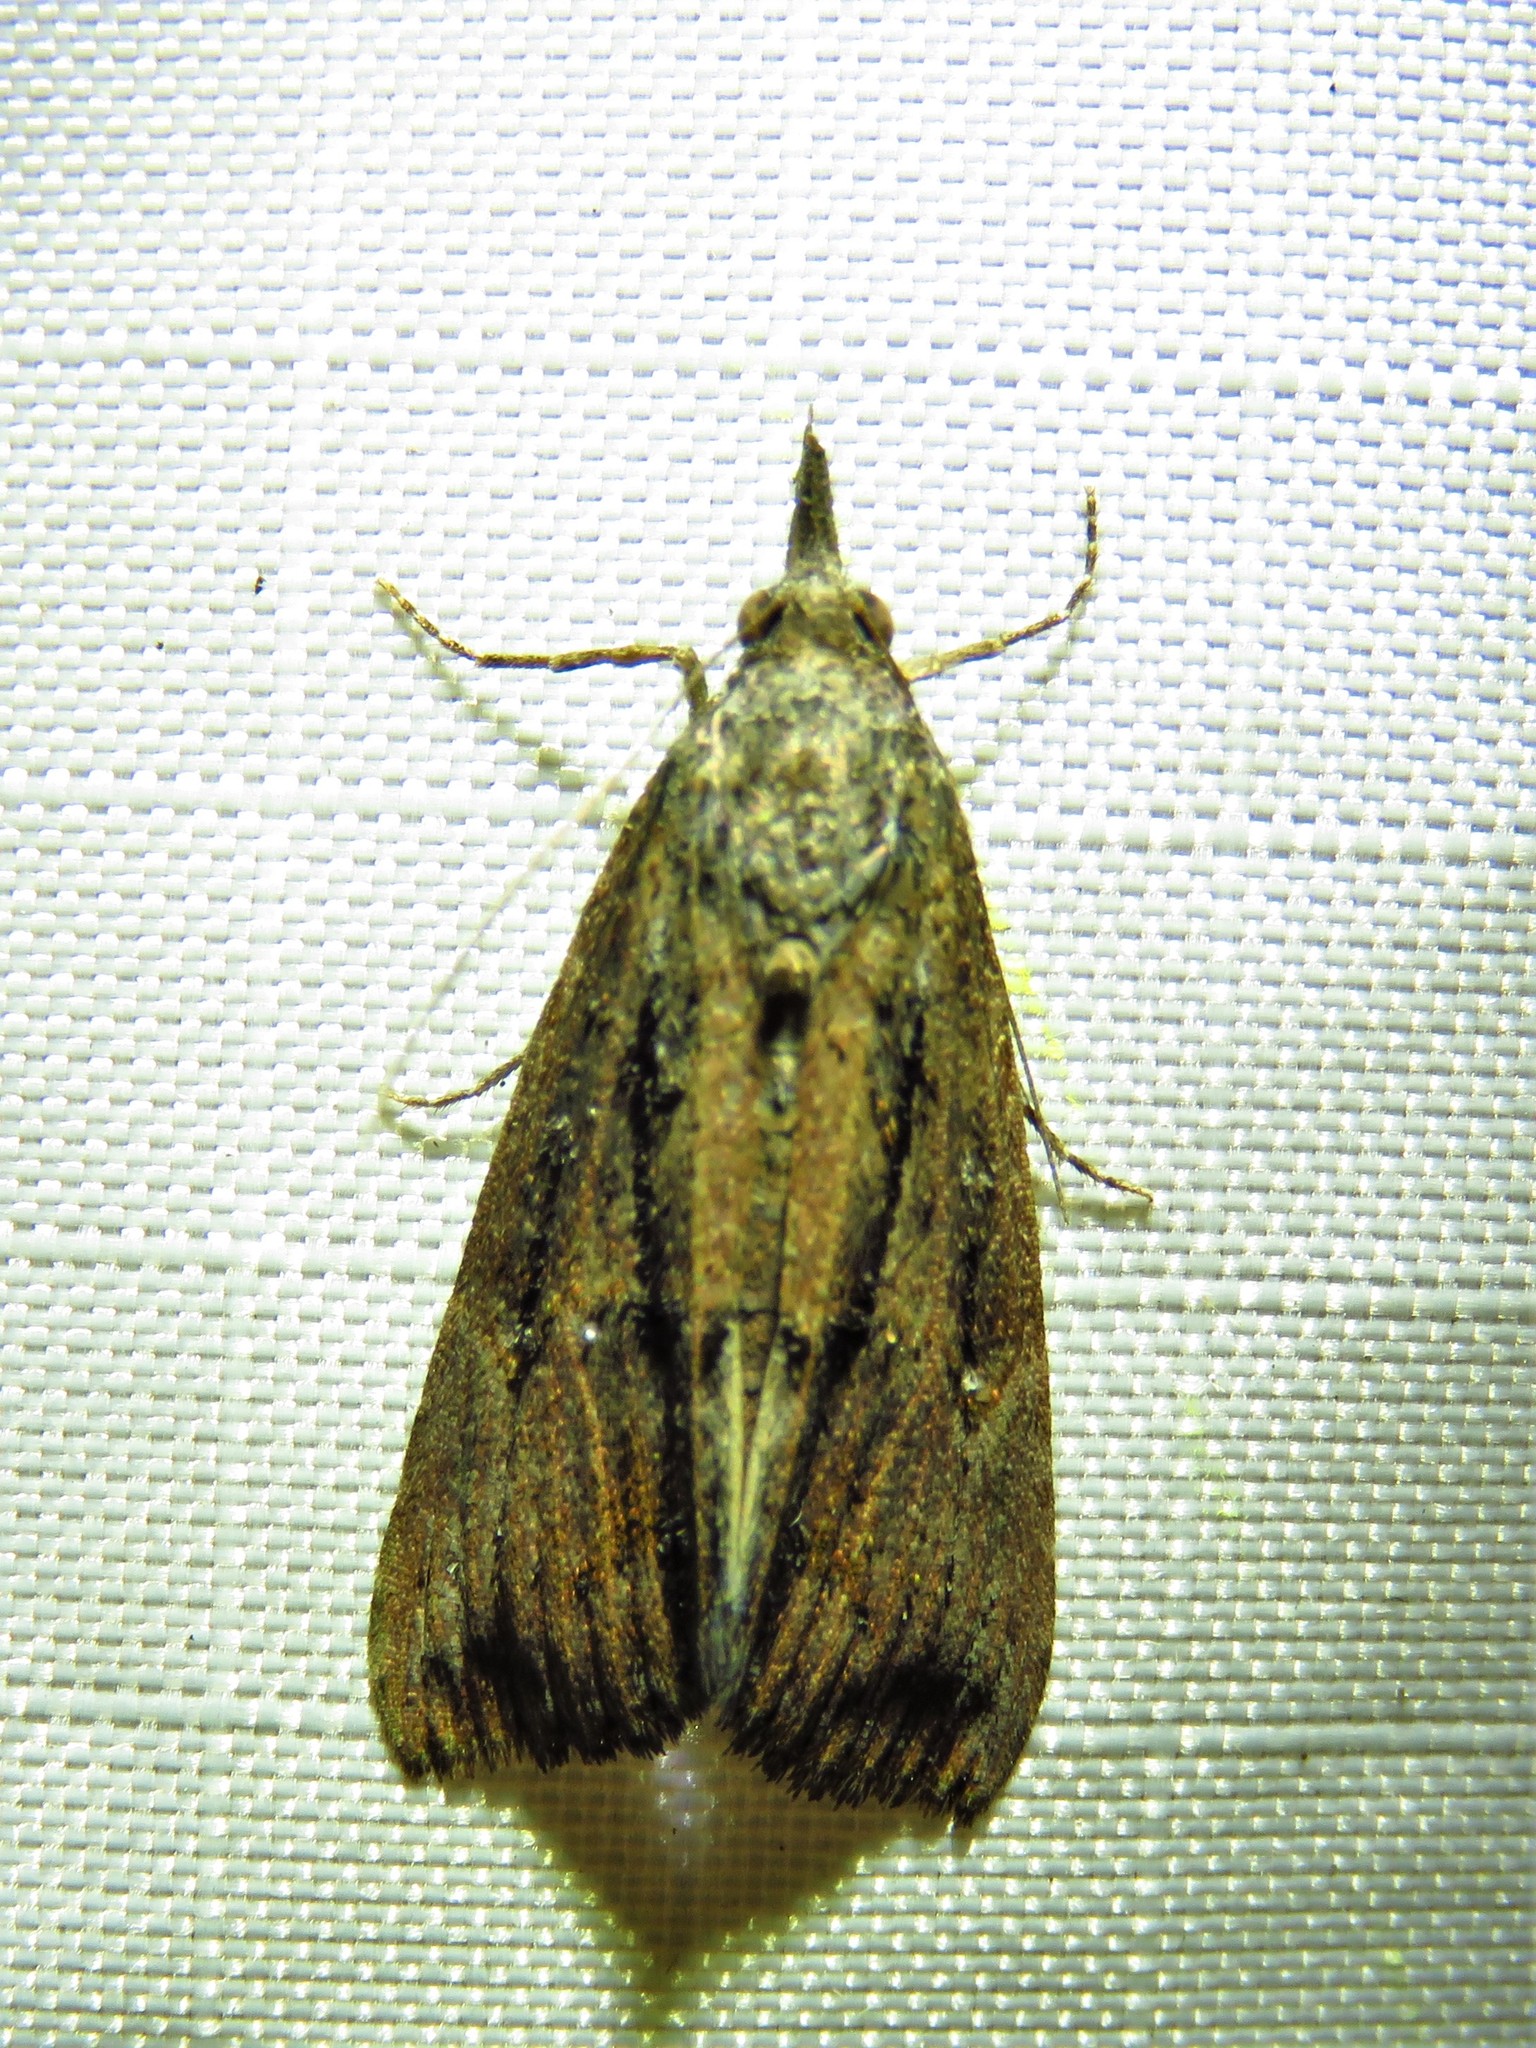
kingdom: Animalia
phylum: Arthropoda
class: Insecta
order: Lepidoptera
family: Erebidae
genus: Hypena
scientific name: Hypena scabra
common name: Green cloverworm
